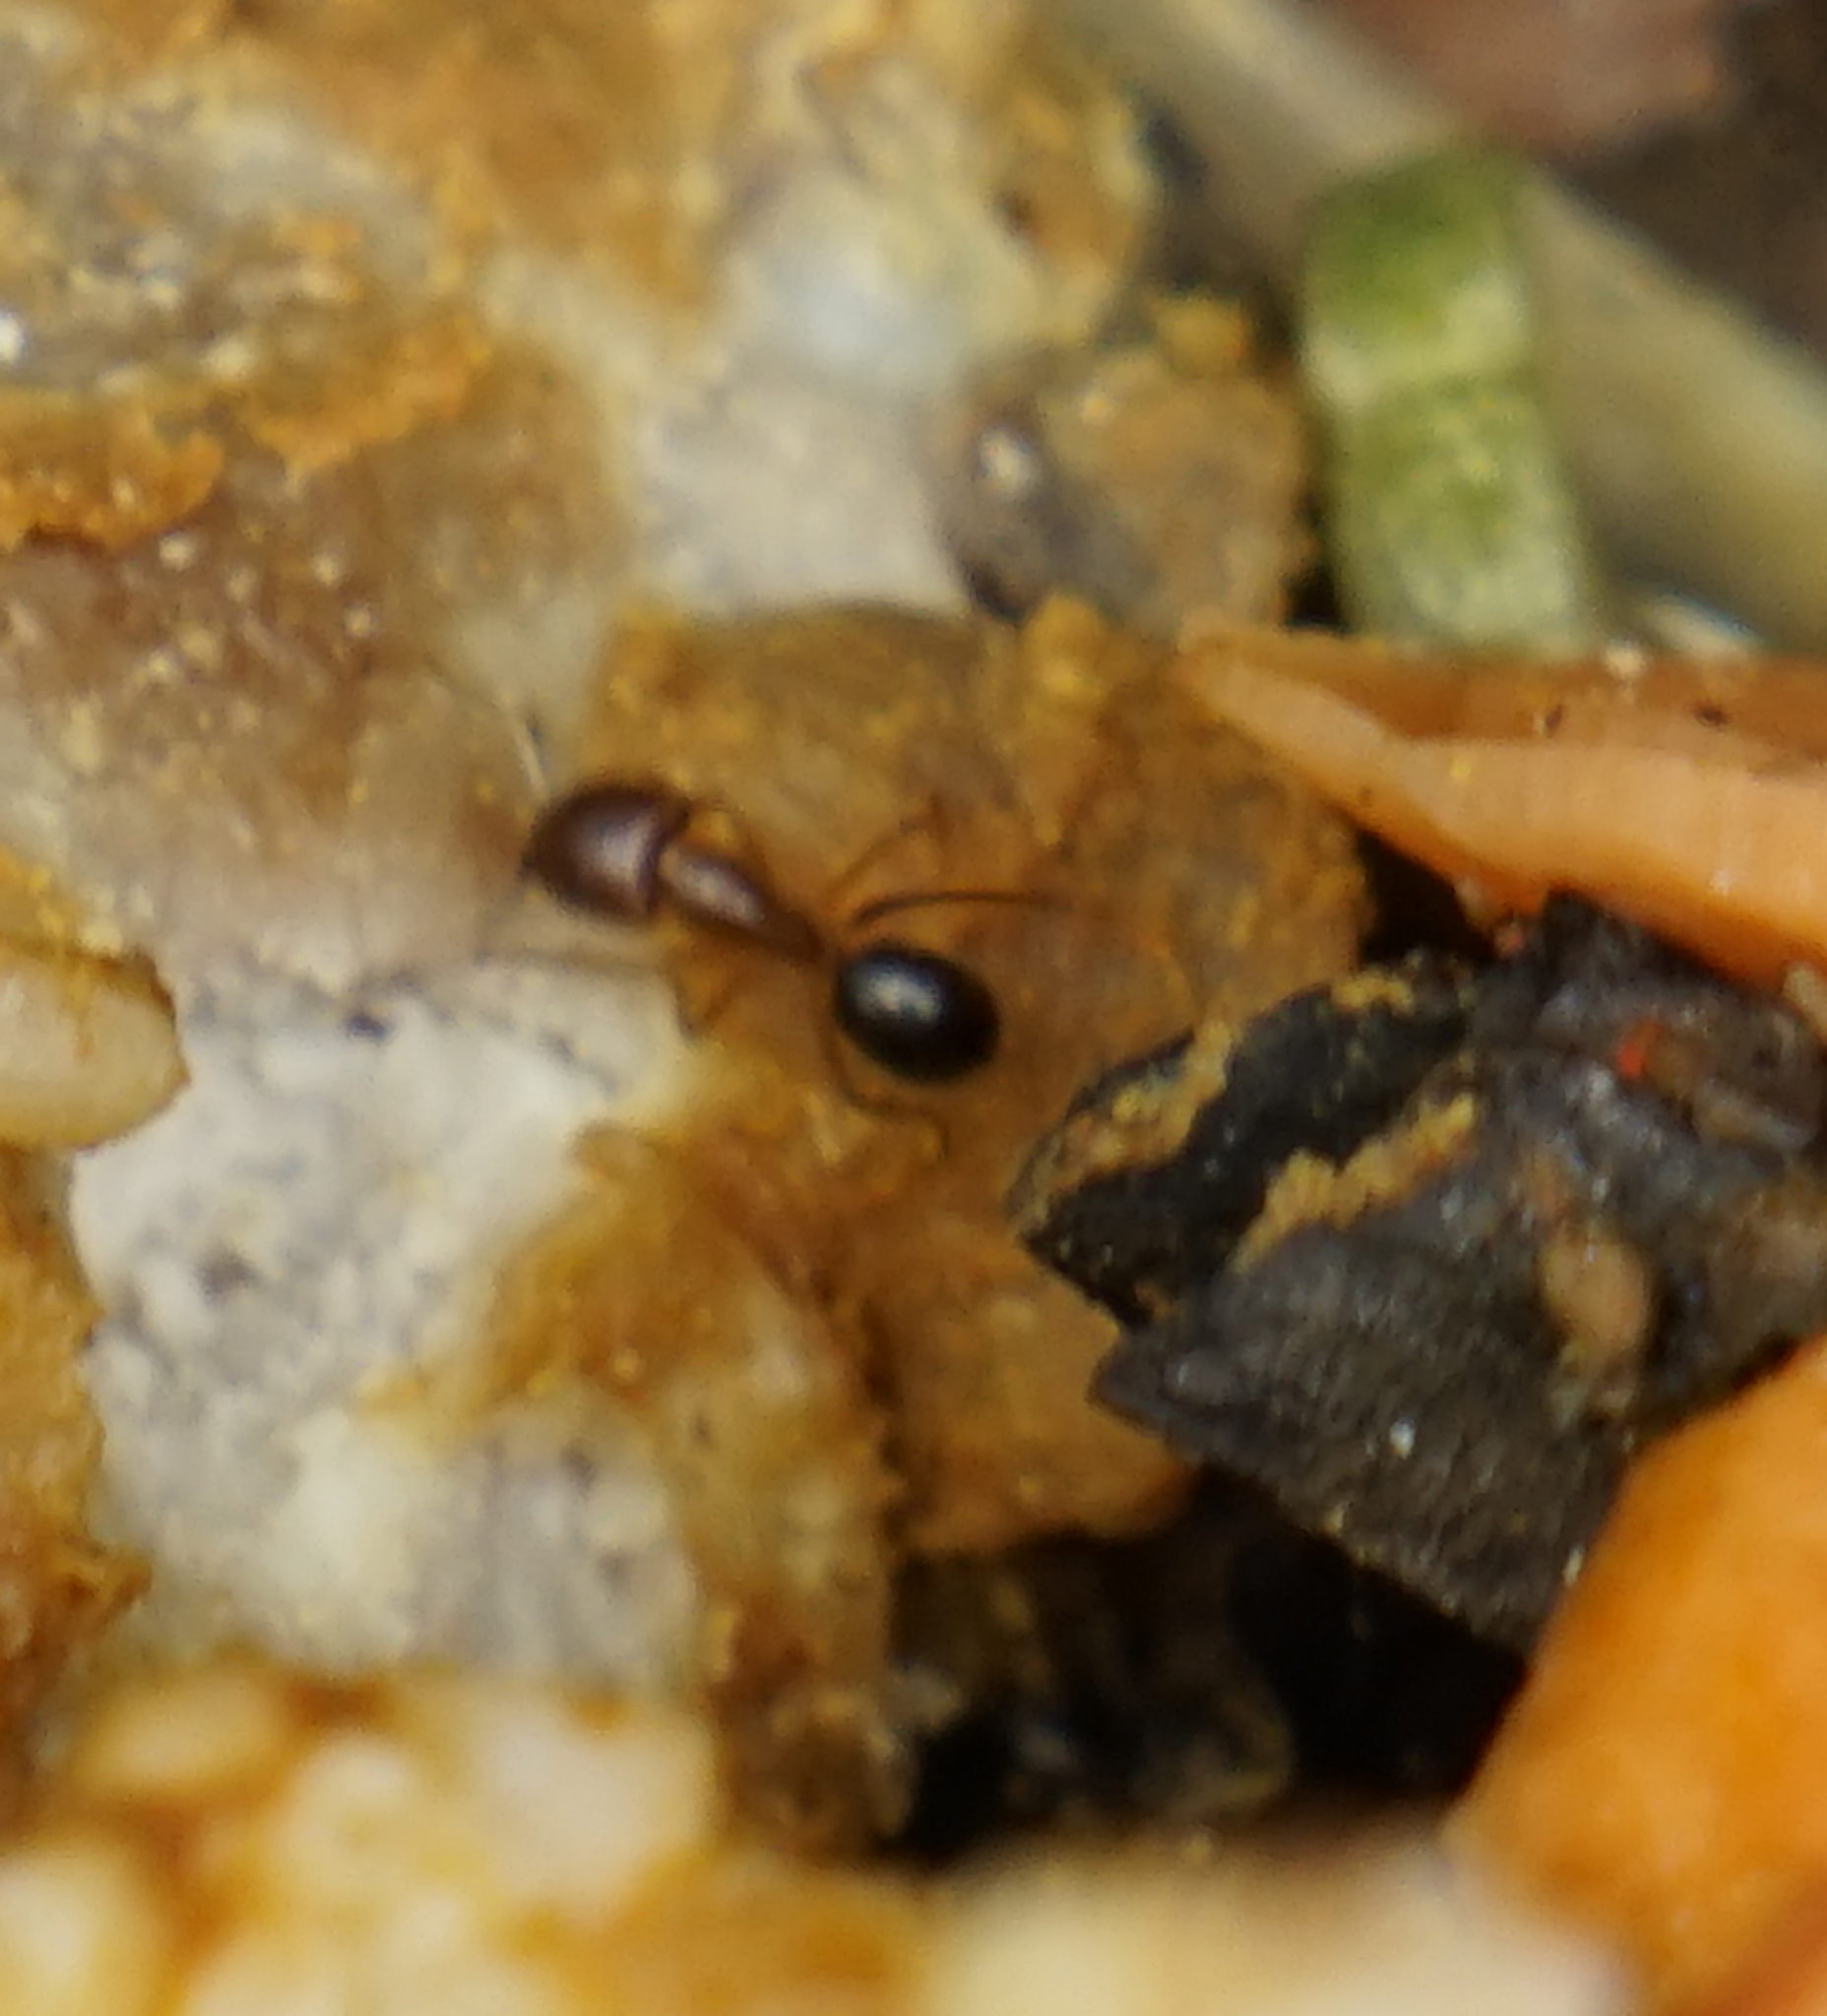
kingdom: Animalia
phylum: Arthropoda
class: Insecta
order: Hymenoptera
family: Formicidae
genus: Camponotus
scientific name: Camponotus
